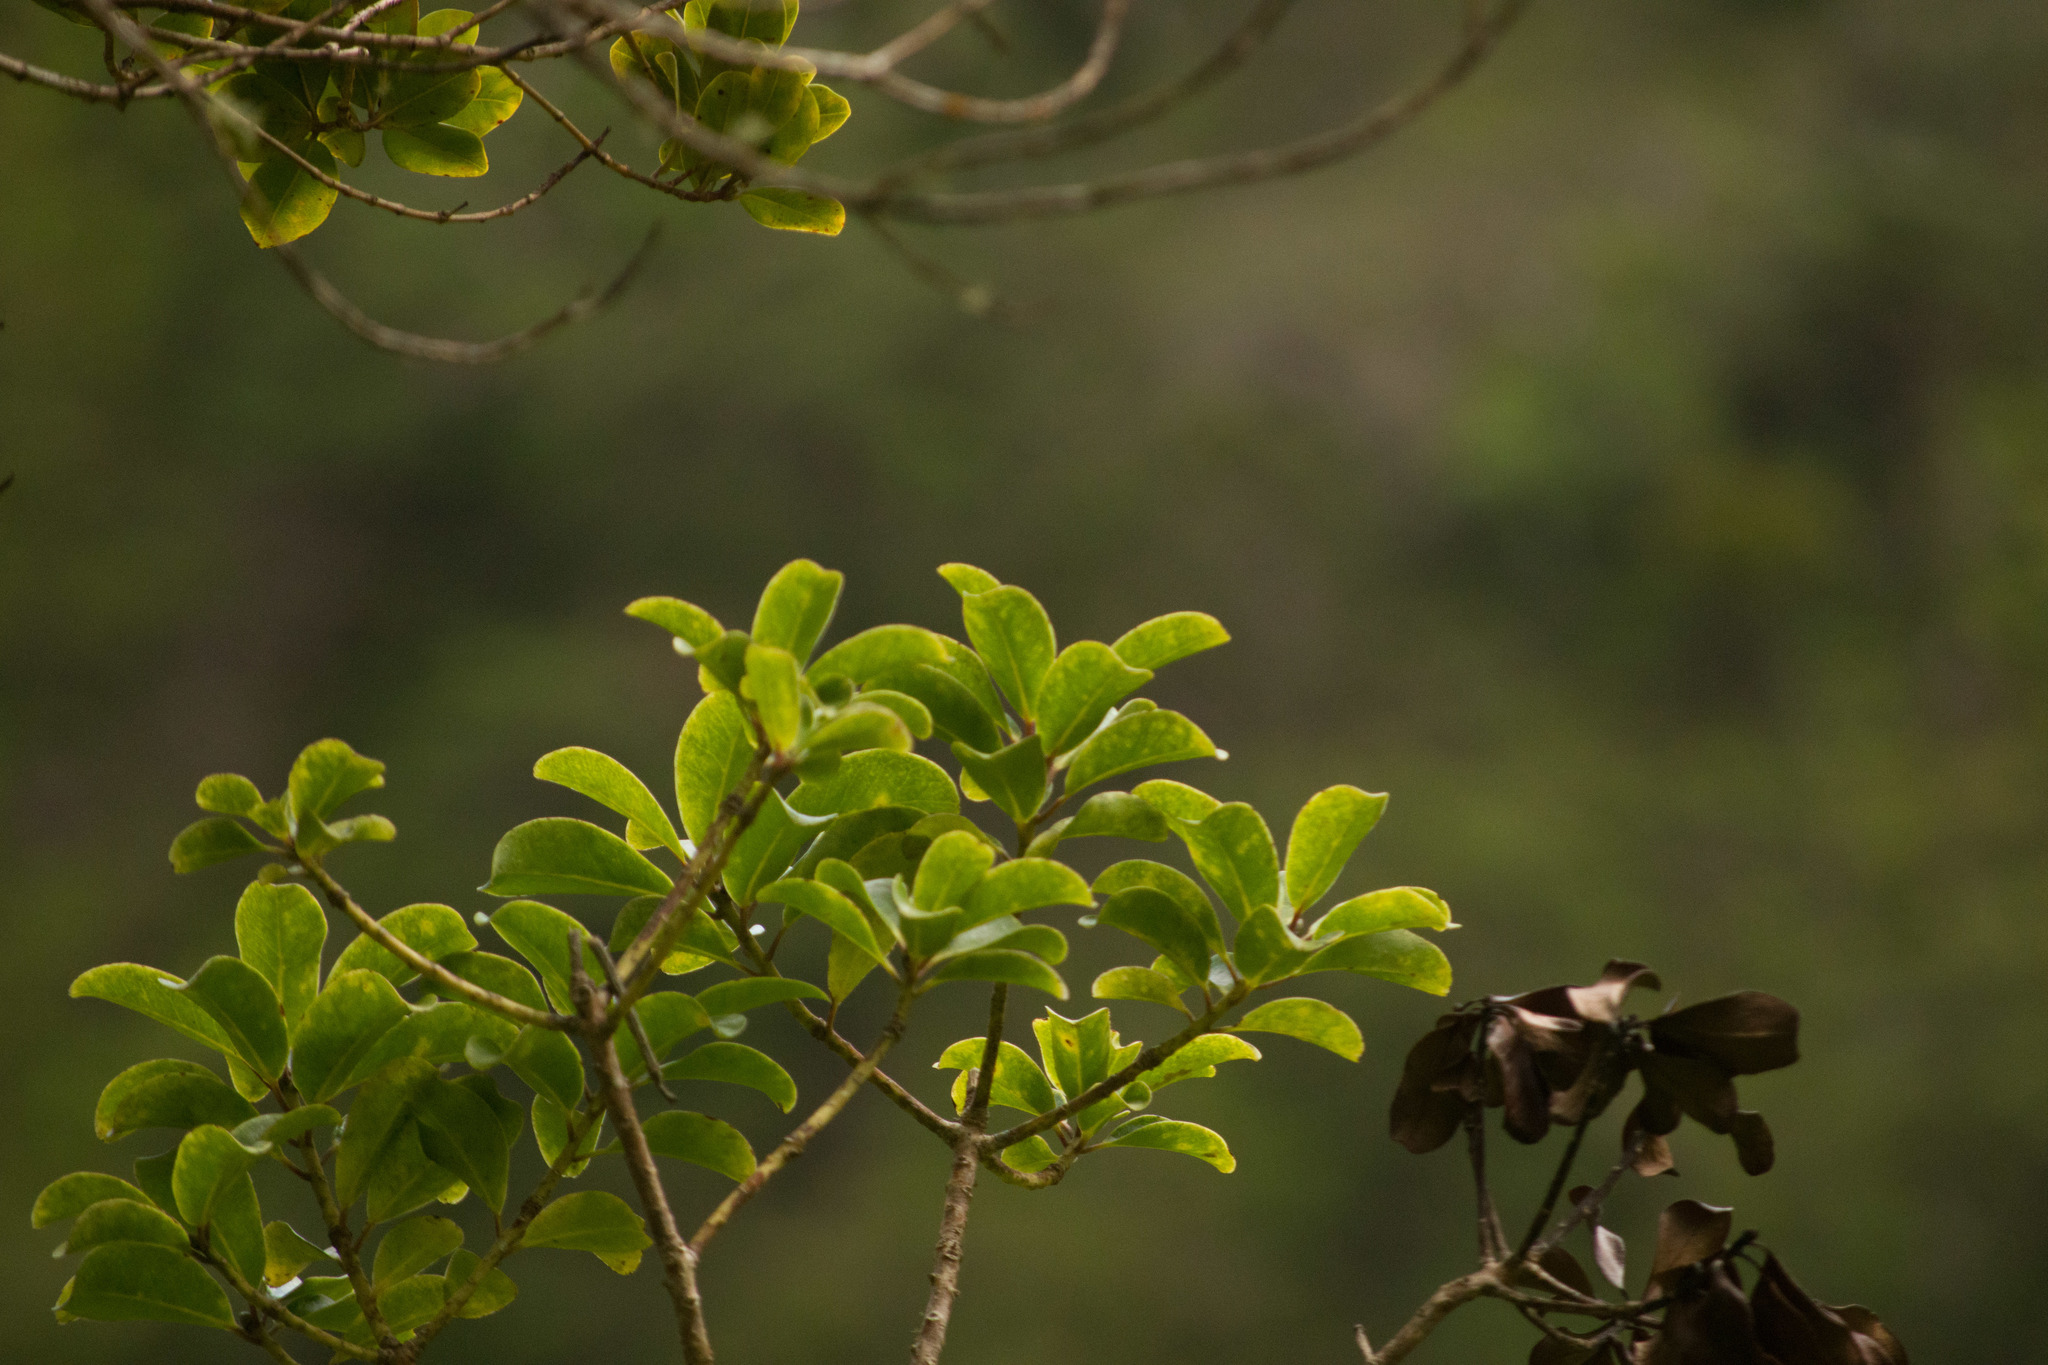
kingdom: Plantae
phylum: Tracheophyta
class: Magnoliopsida
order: Aquifoliales
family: Aquifoliaceae
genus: Ilex
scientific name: Ilex anomala
